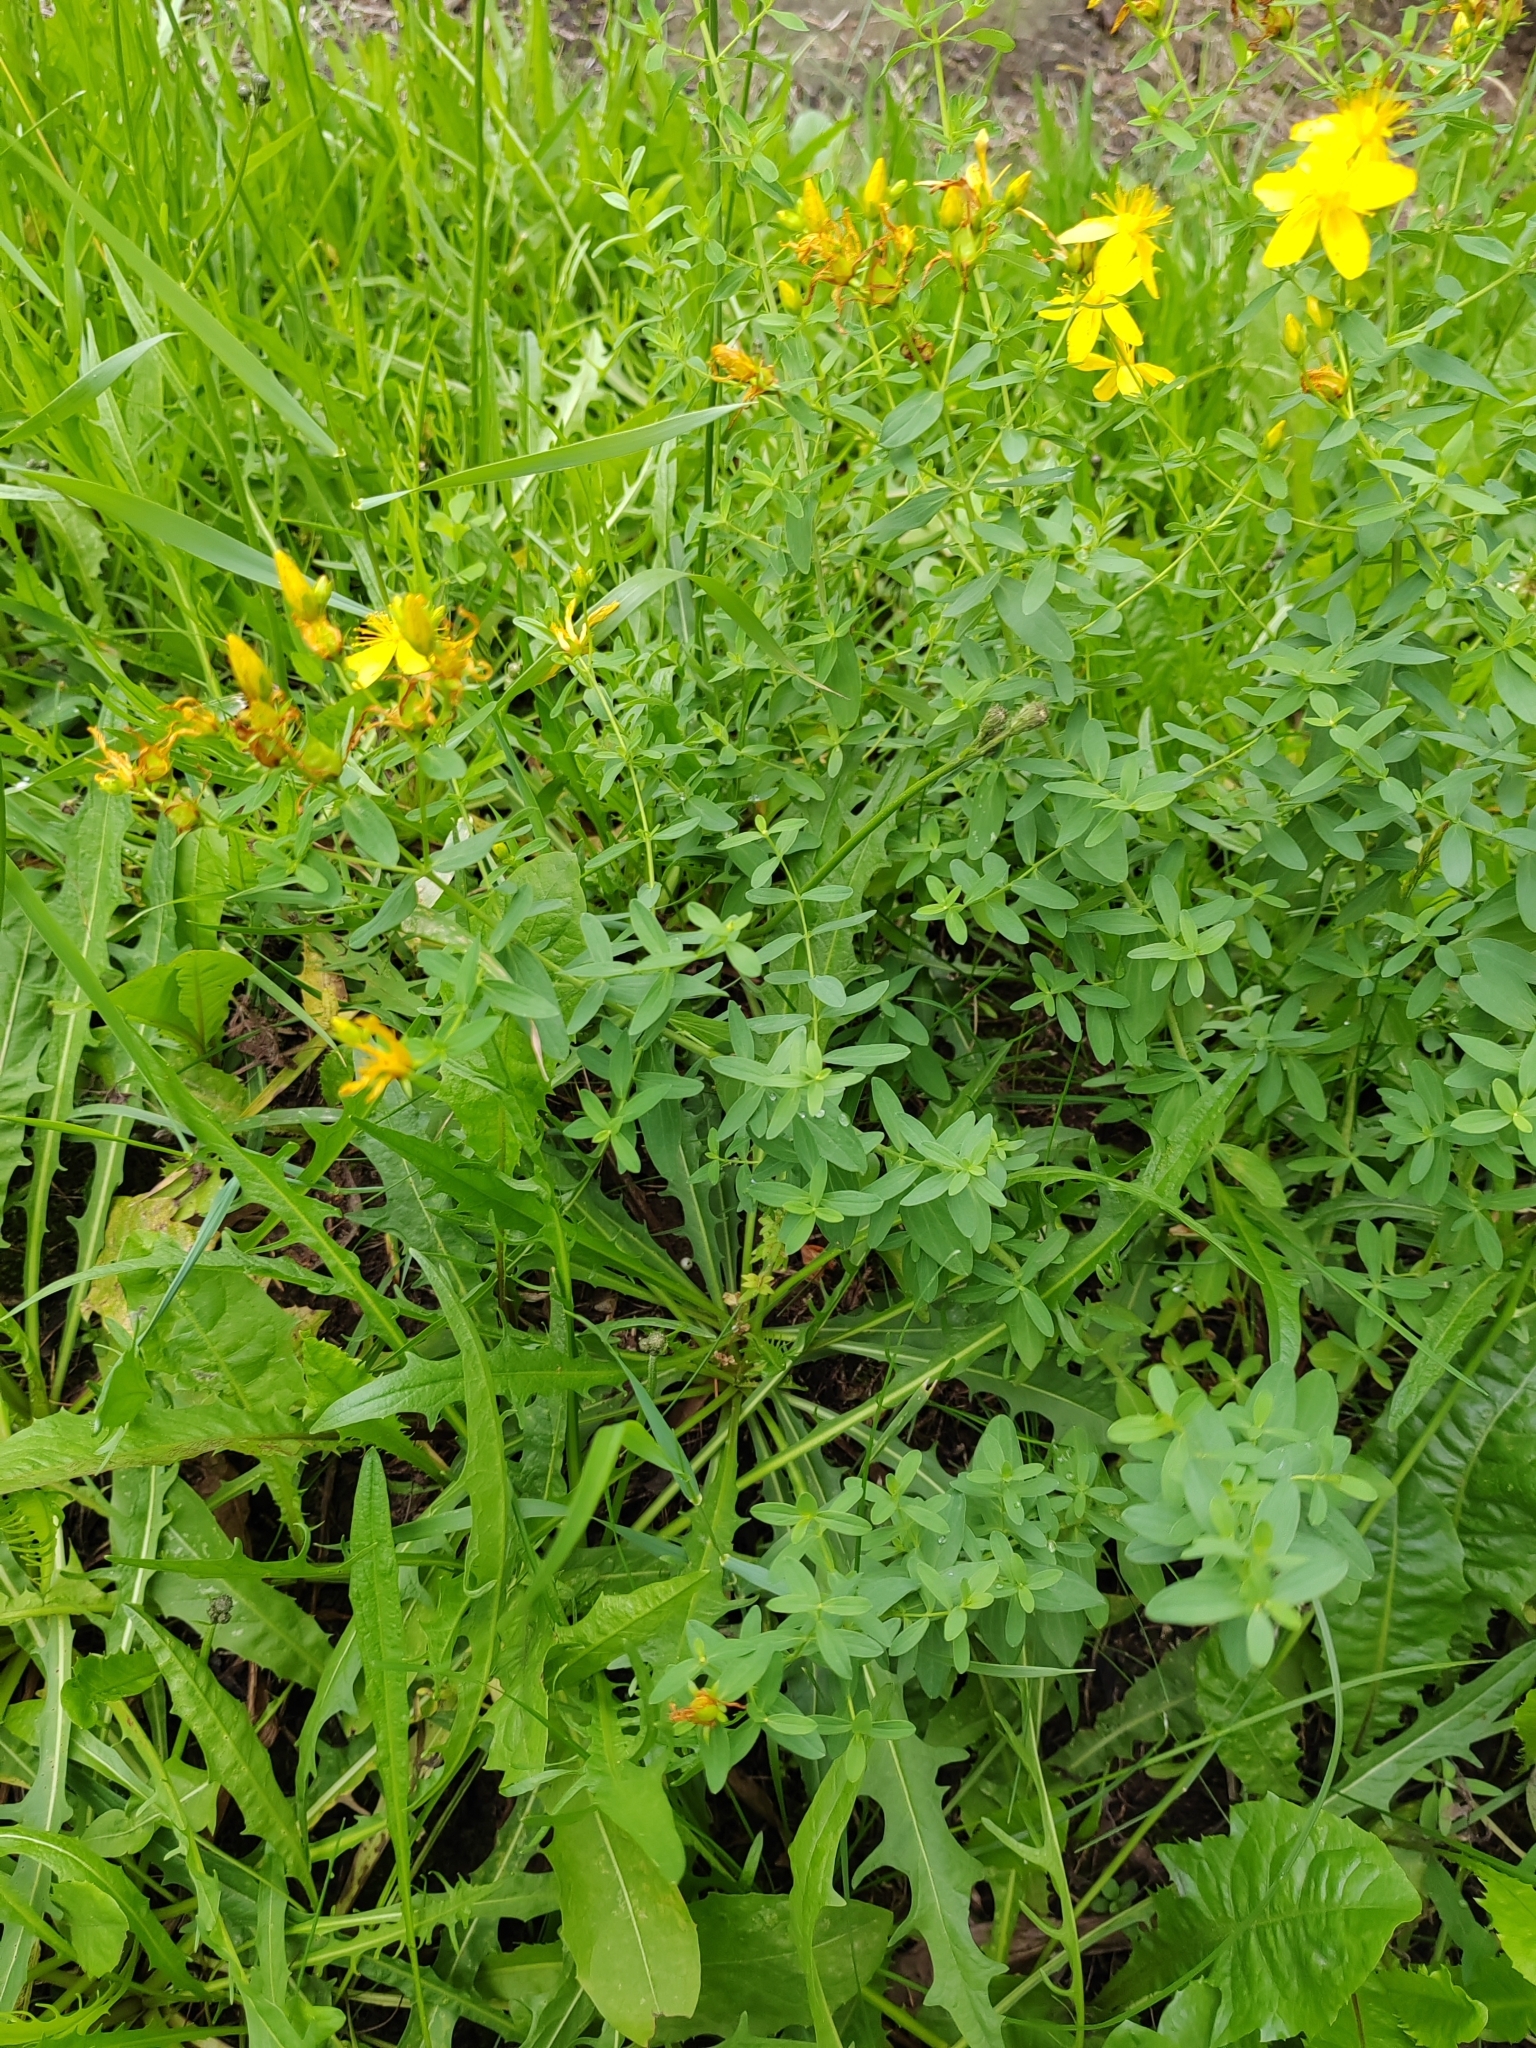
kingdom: Plantae
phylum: Tracheophyta
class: Magnoliopsida
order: Malpighiales
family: Hypericaceae
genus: Hypericum
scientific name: Hypericum perforatum
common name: Common st. johnswort
